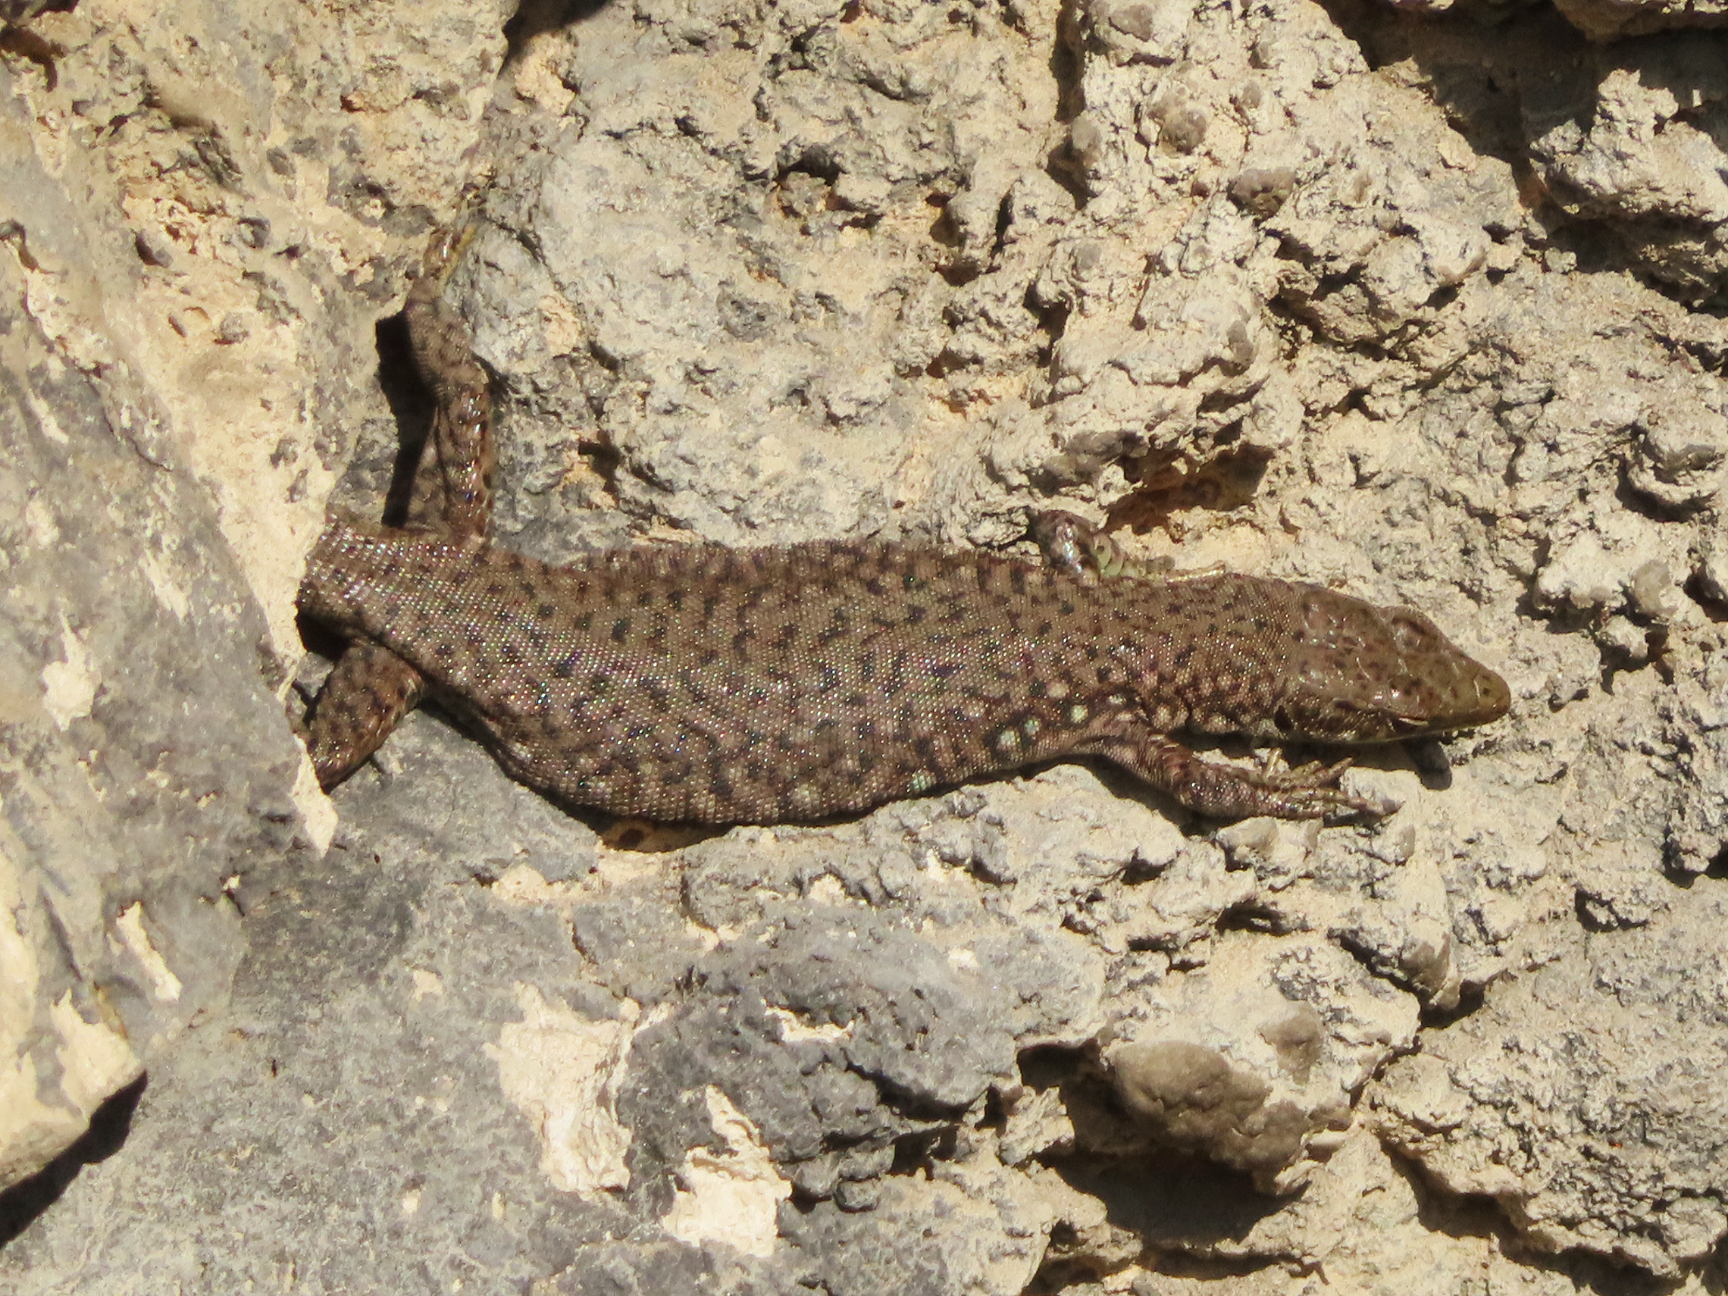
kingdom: Animalia
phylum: Chordata
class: Squamata
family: Lacertidae
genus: Darevskia
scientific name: Darevskia
